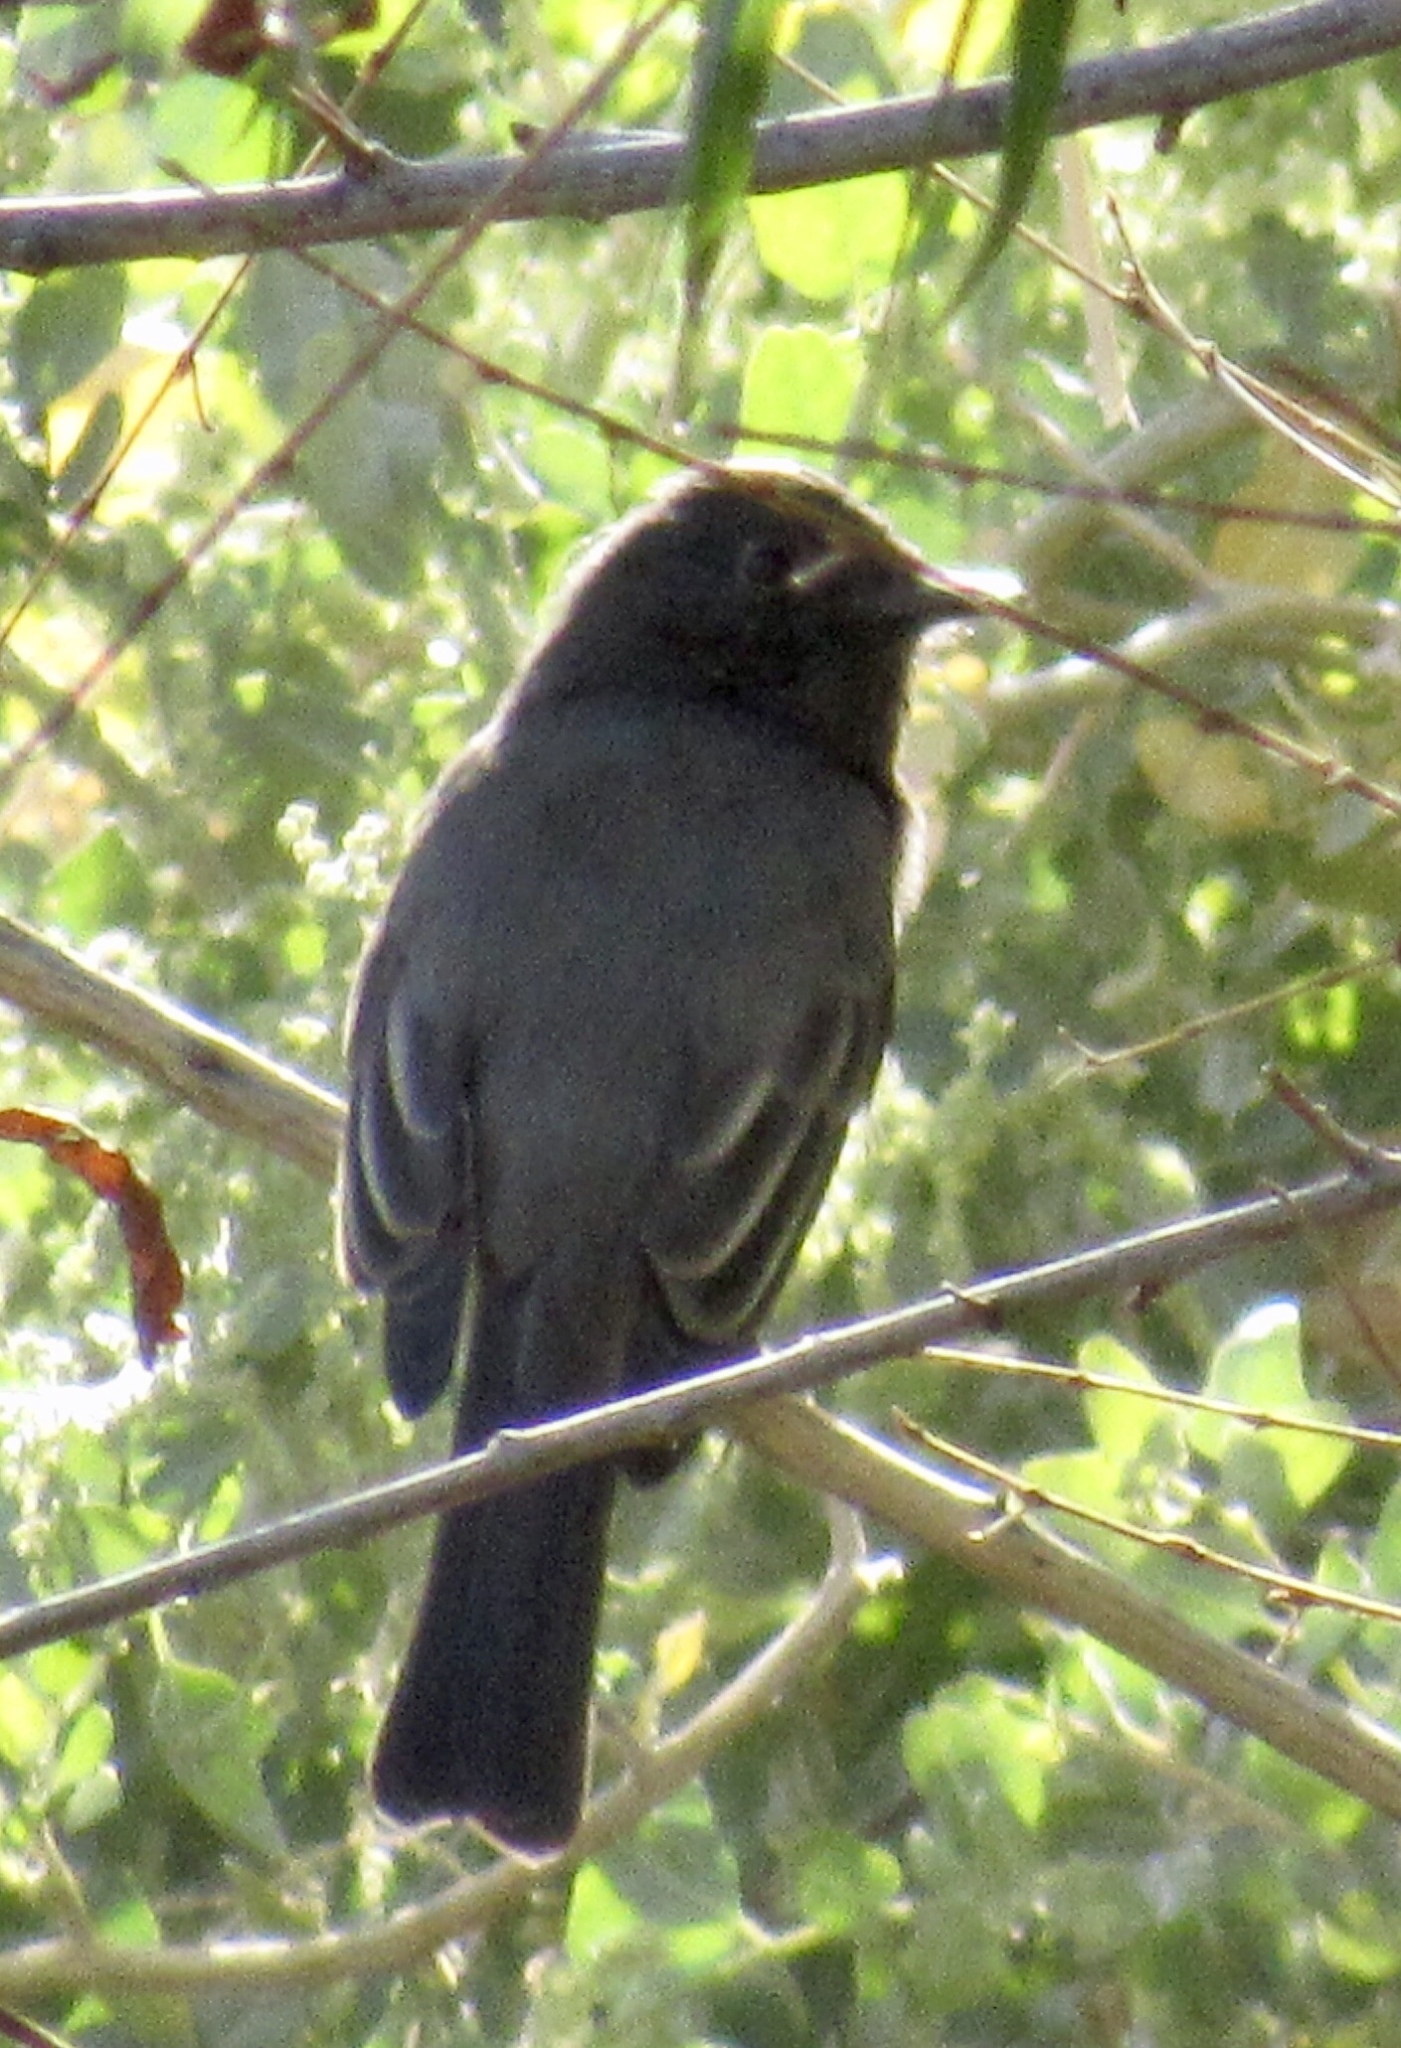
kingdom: Animalia
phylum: Chordata
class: Aves
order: Passeriformes
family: Tyrannidae
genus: Sayornis
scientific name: Sayornis nigricans
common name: Black phoebe
